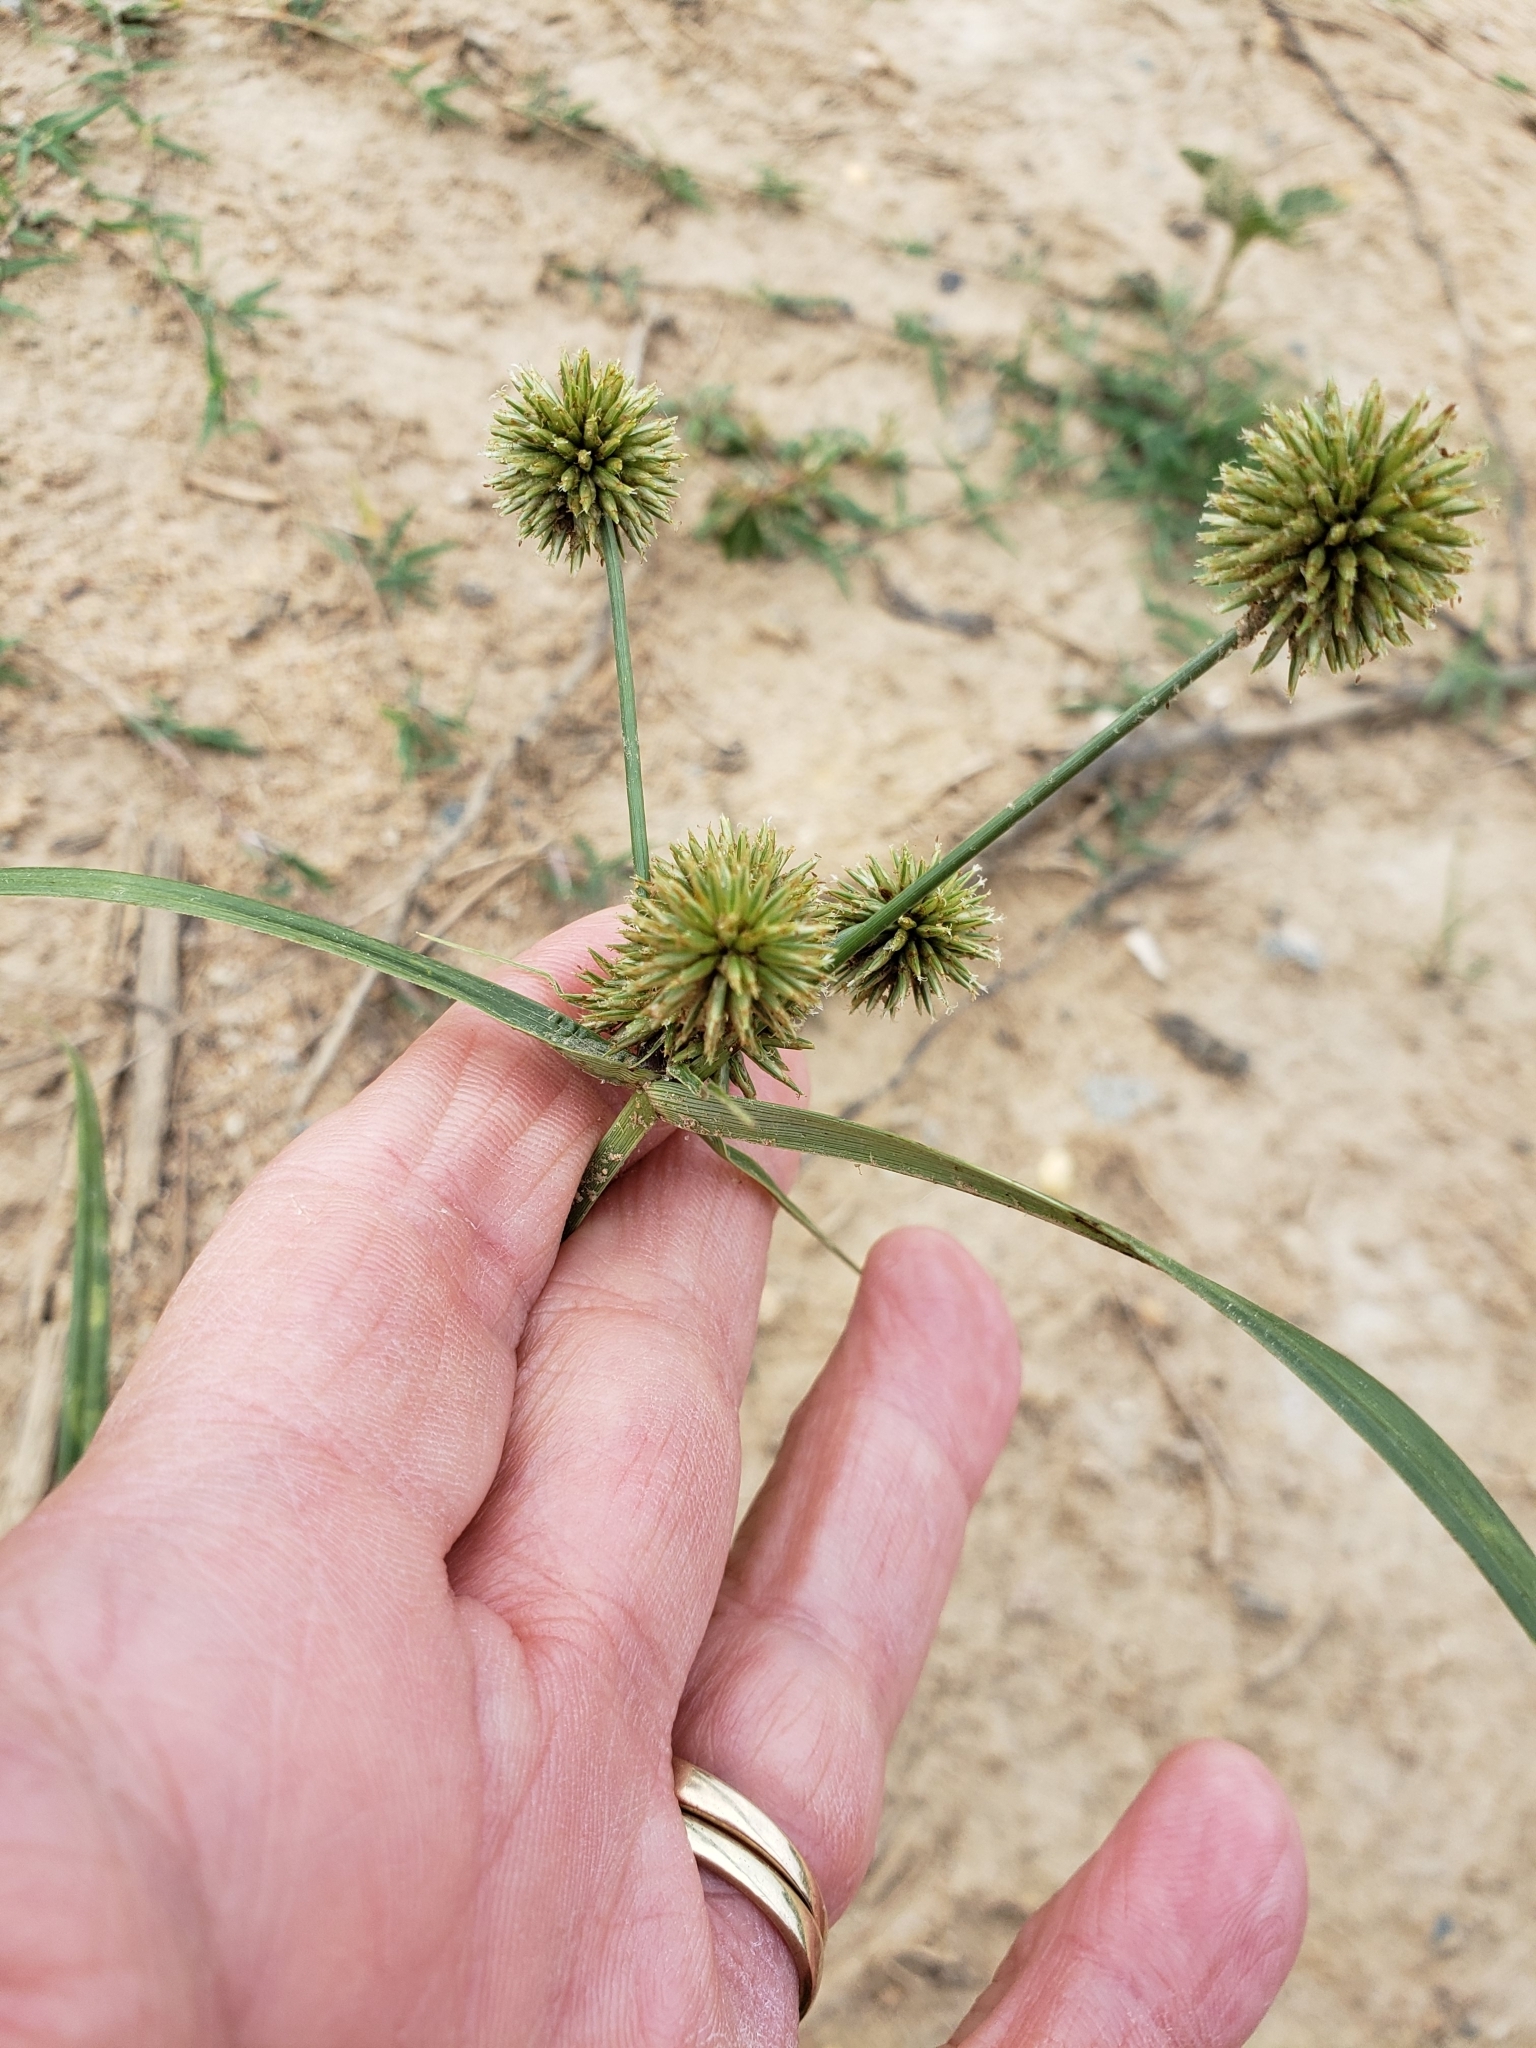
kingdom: Plantae
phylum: Tracheophyta
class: Liliopsida
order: Poales
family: Cyperaceae
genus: Cyperus
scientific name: Cyperus echinatus
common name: Teasel sedge
